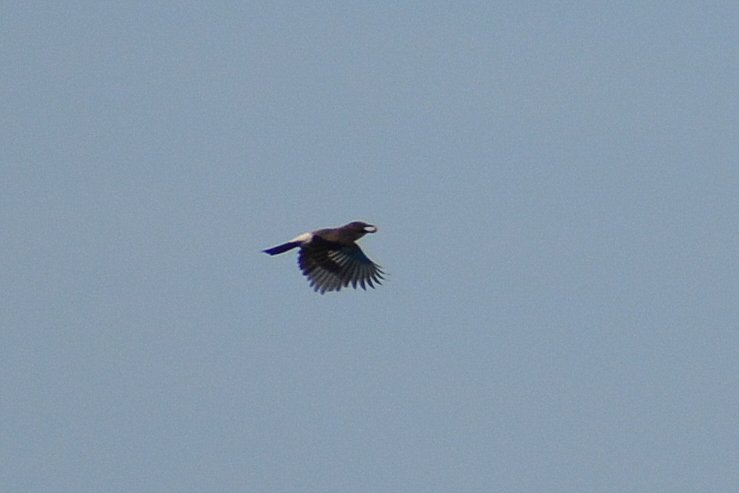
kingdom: Animalia
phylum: Chordata
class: Aves
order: Passeriformes
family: Corvidae
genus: Garrulus
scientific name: Garrulus glandarius
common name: Eurasian jay
